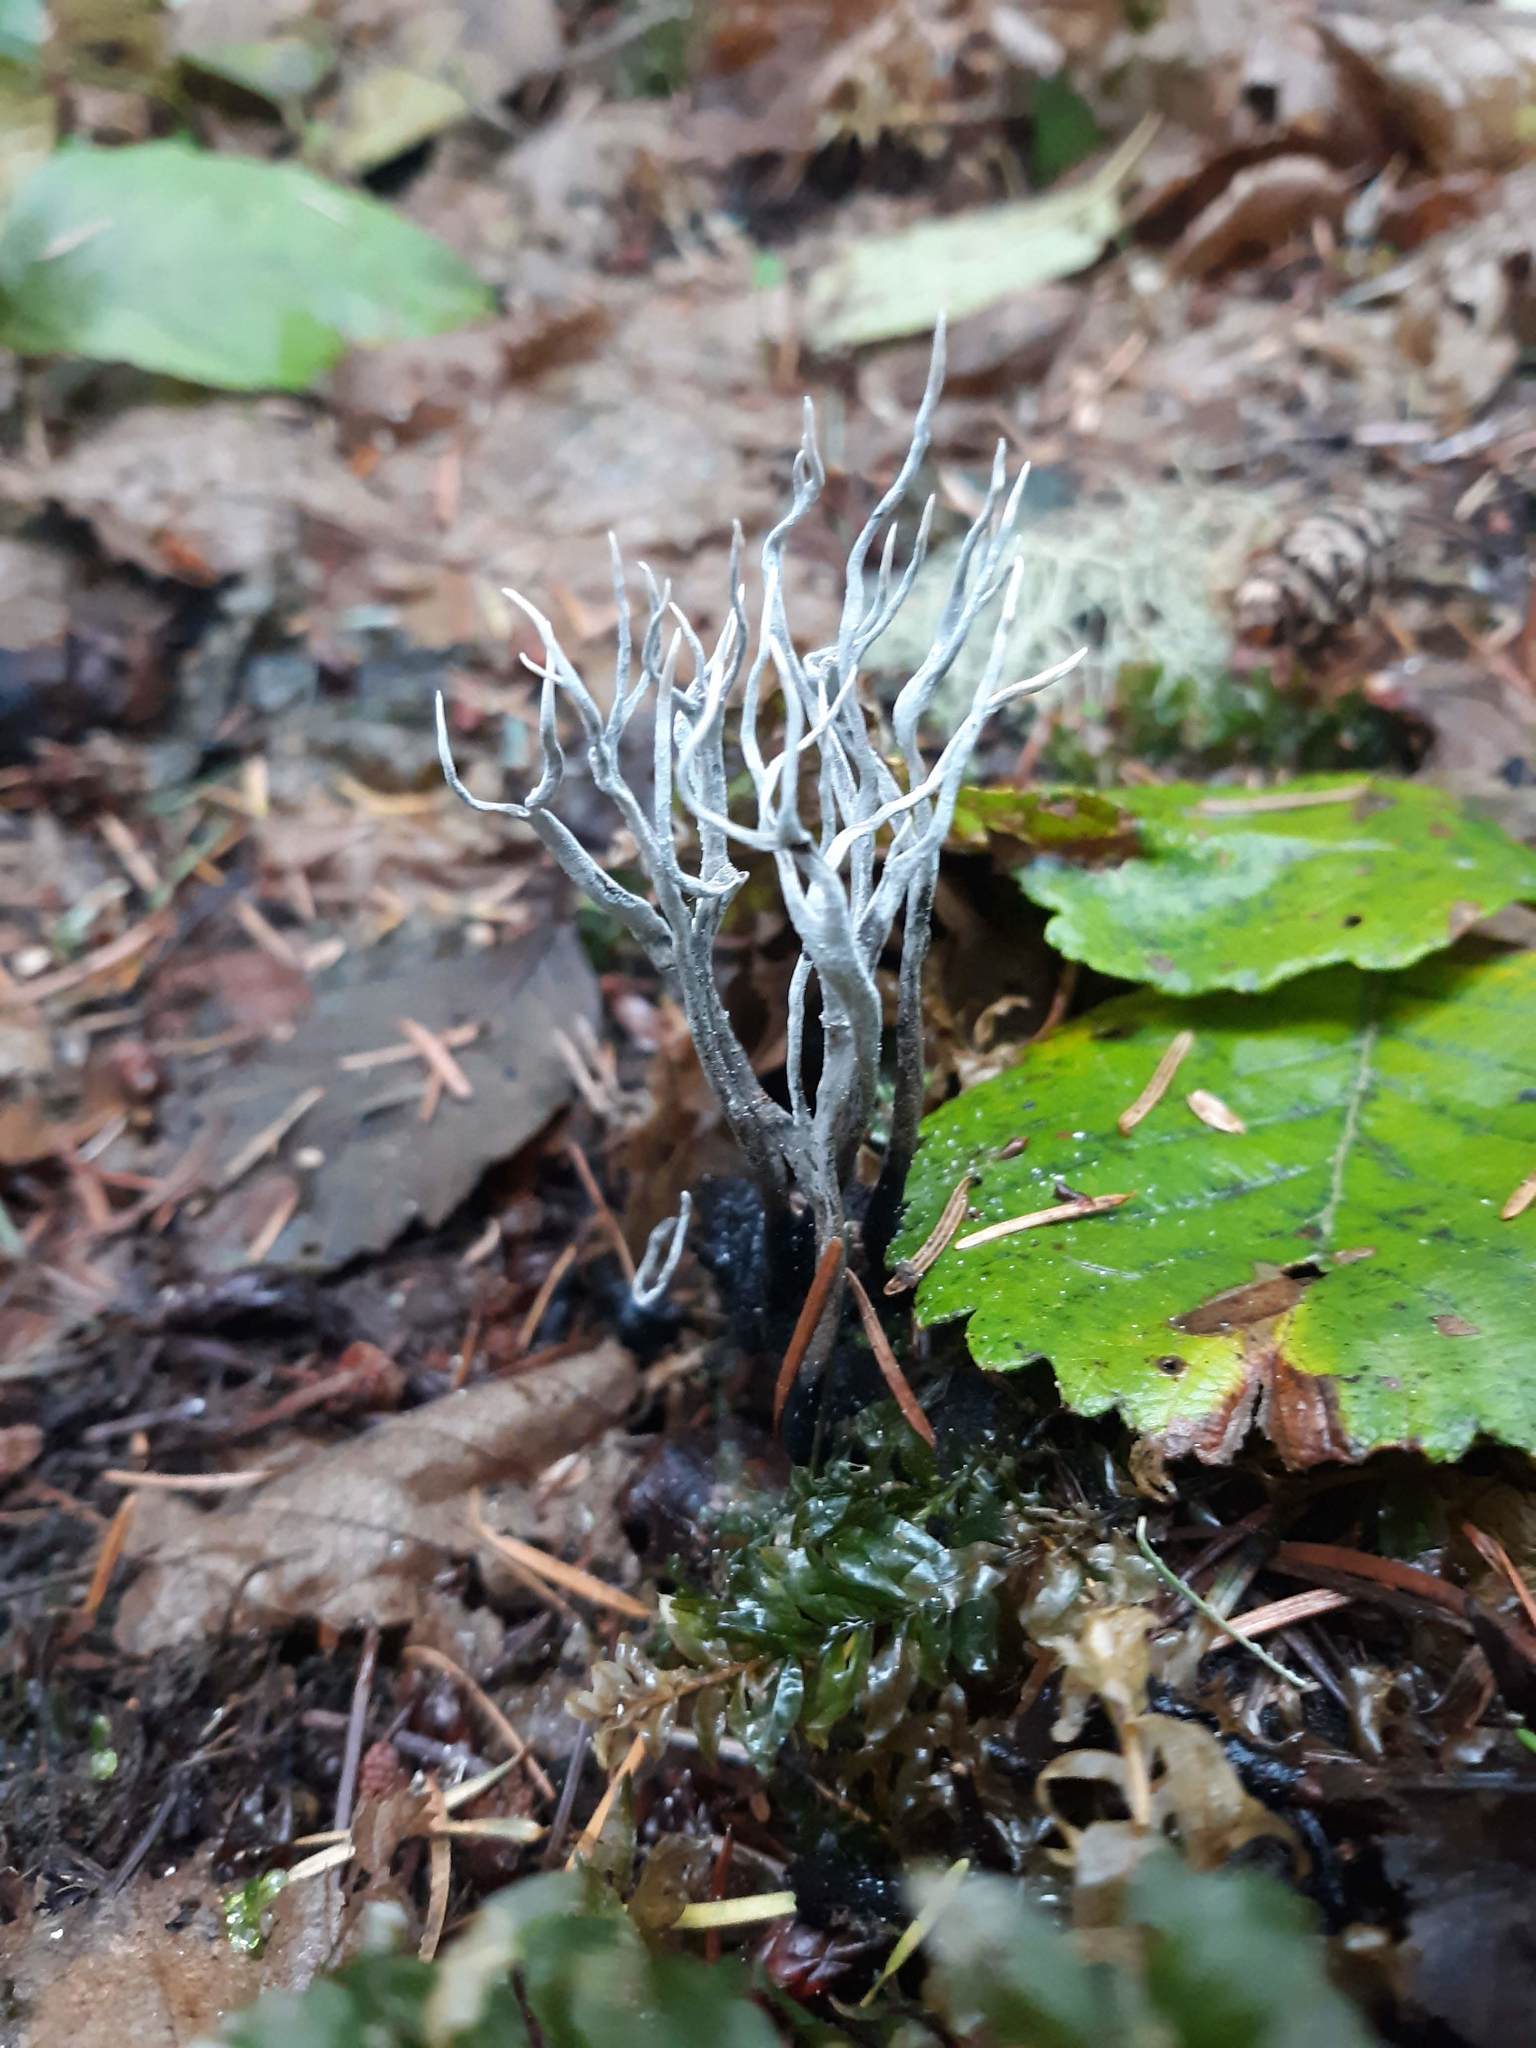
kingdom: Fungi
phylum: Ascomycota
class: Sordariomycetes
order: Xylariales
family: Xylariaceae
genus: Xylaria
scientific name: Xylaria hypoxylon
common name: Candle-snuff fungus
